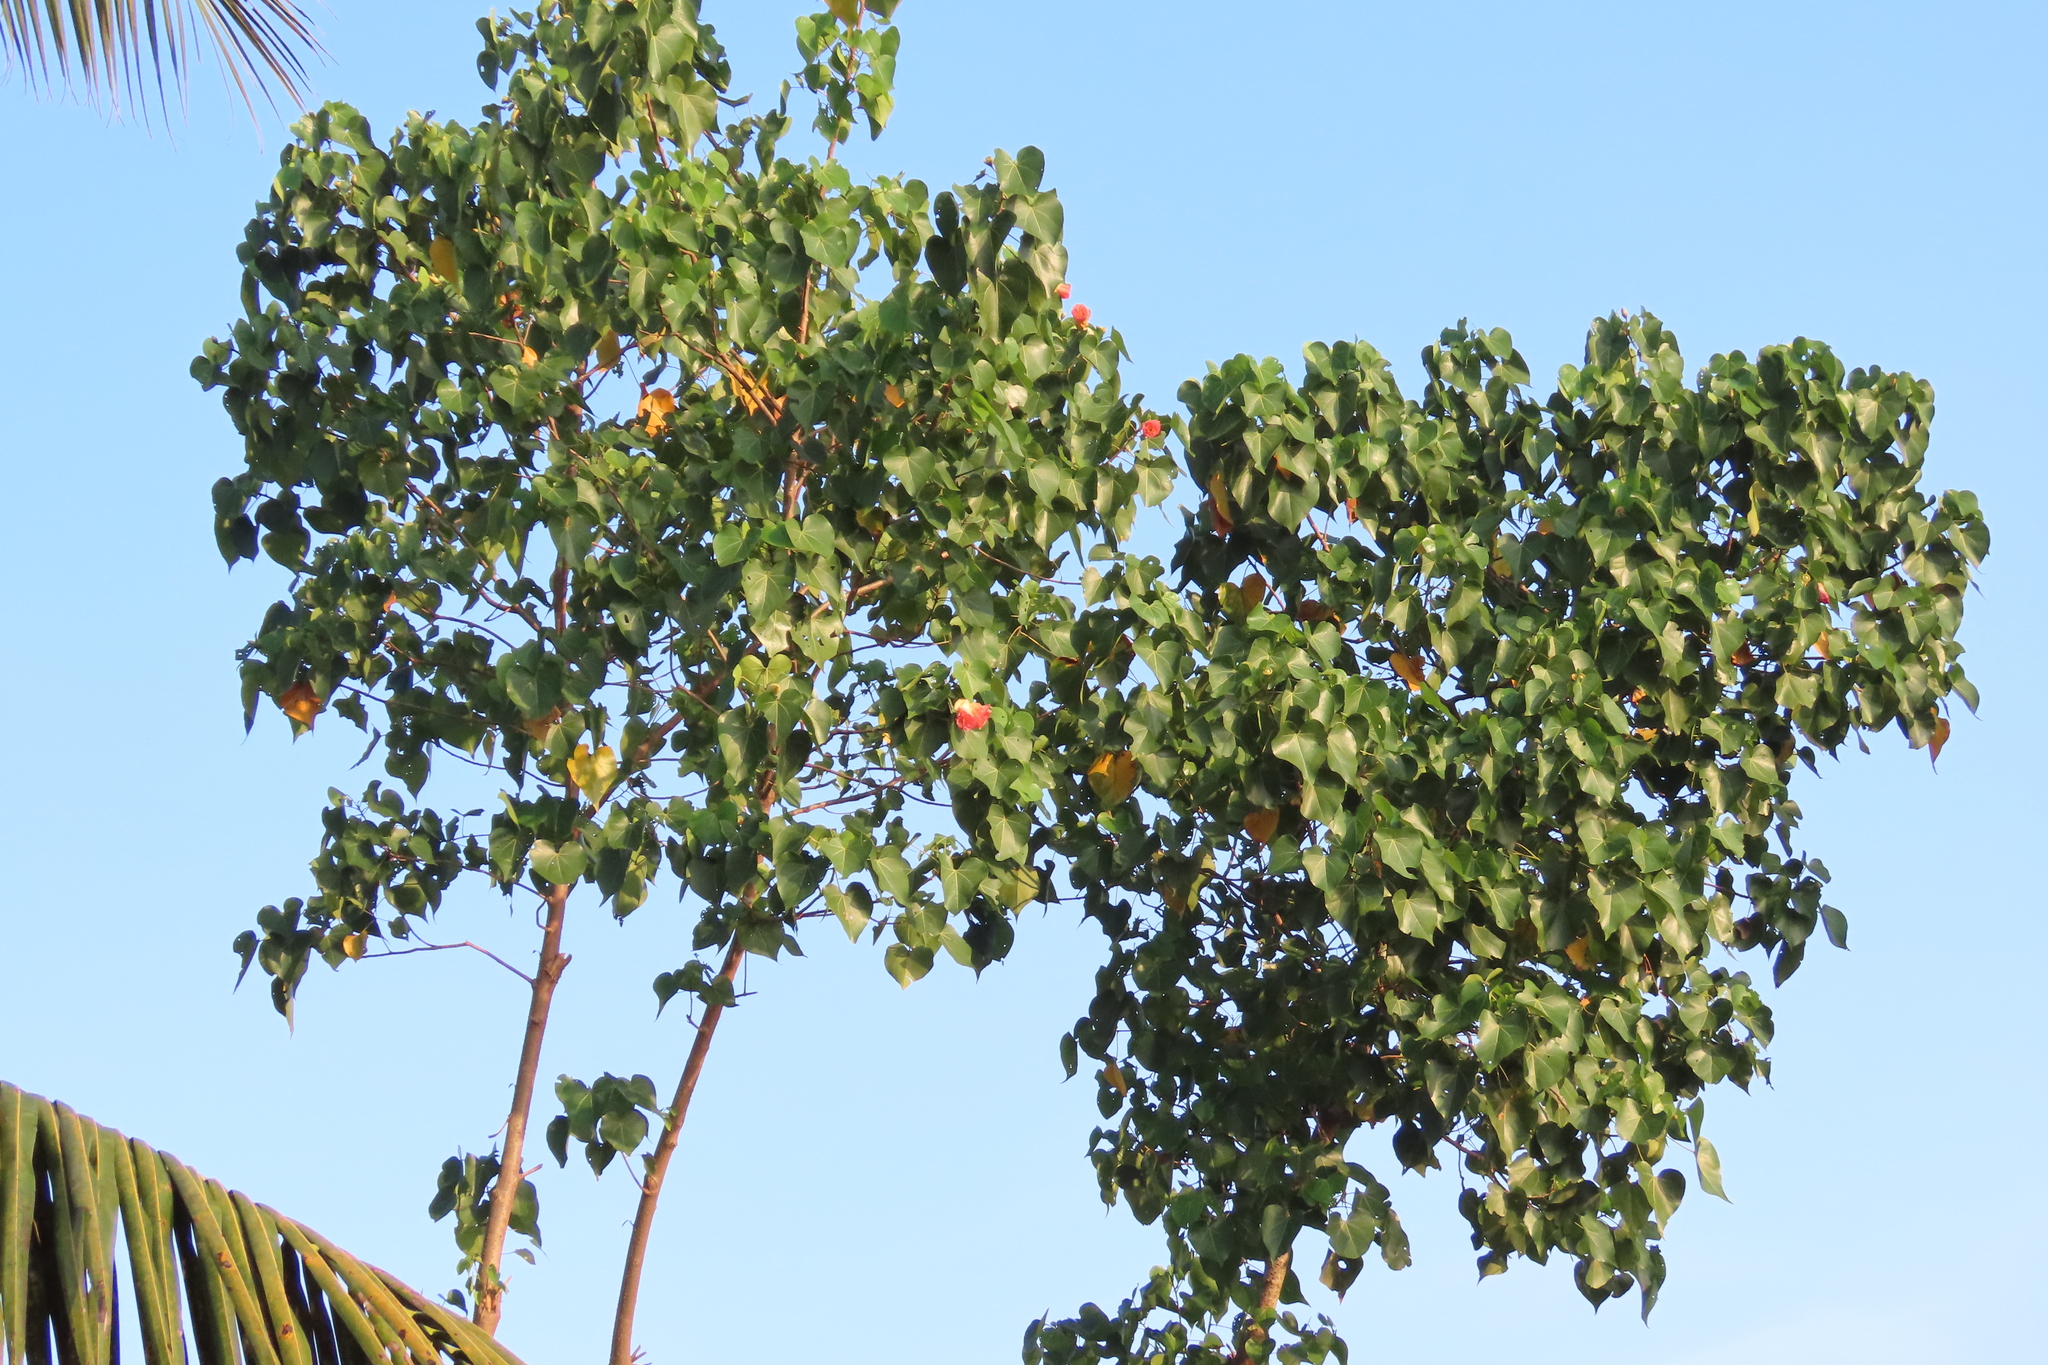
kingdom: Plantae
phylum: Tracheophyta
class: Magnoliopsida
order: Malvales
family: Malvaceae
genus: Thespesia
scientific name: Thespesia populnea
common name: Seaside mahoe
